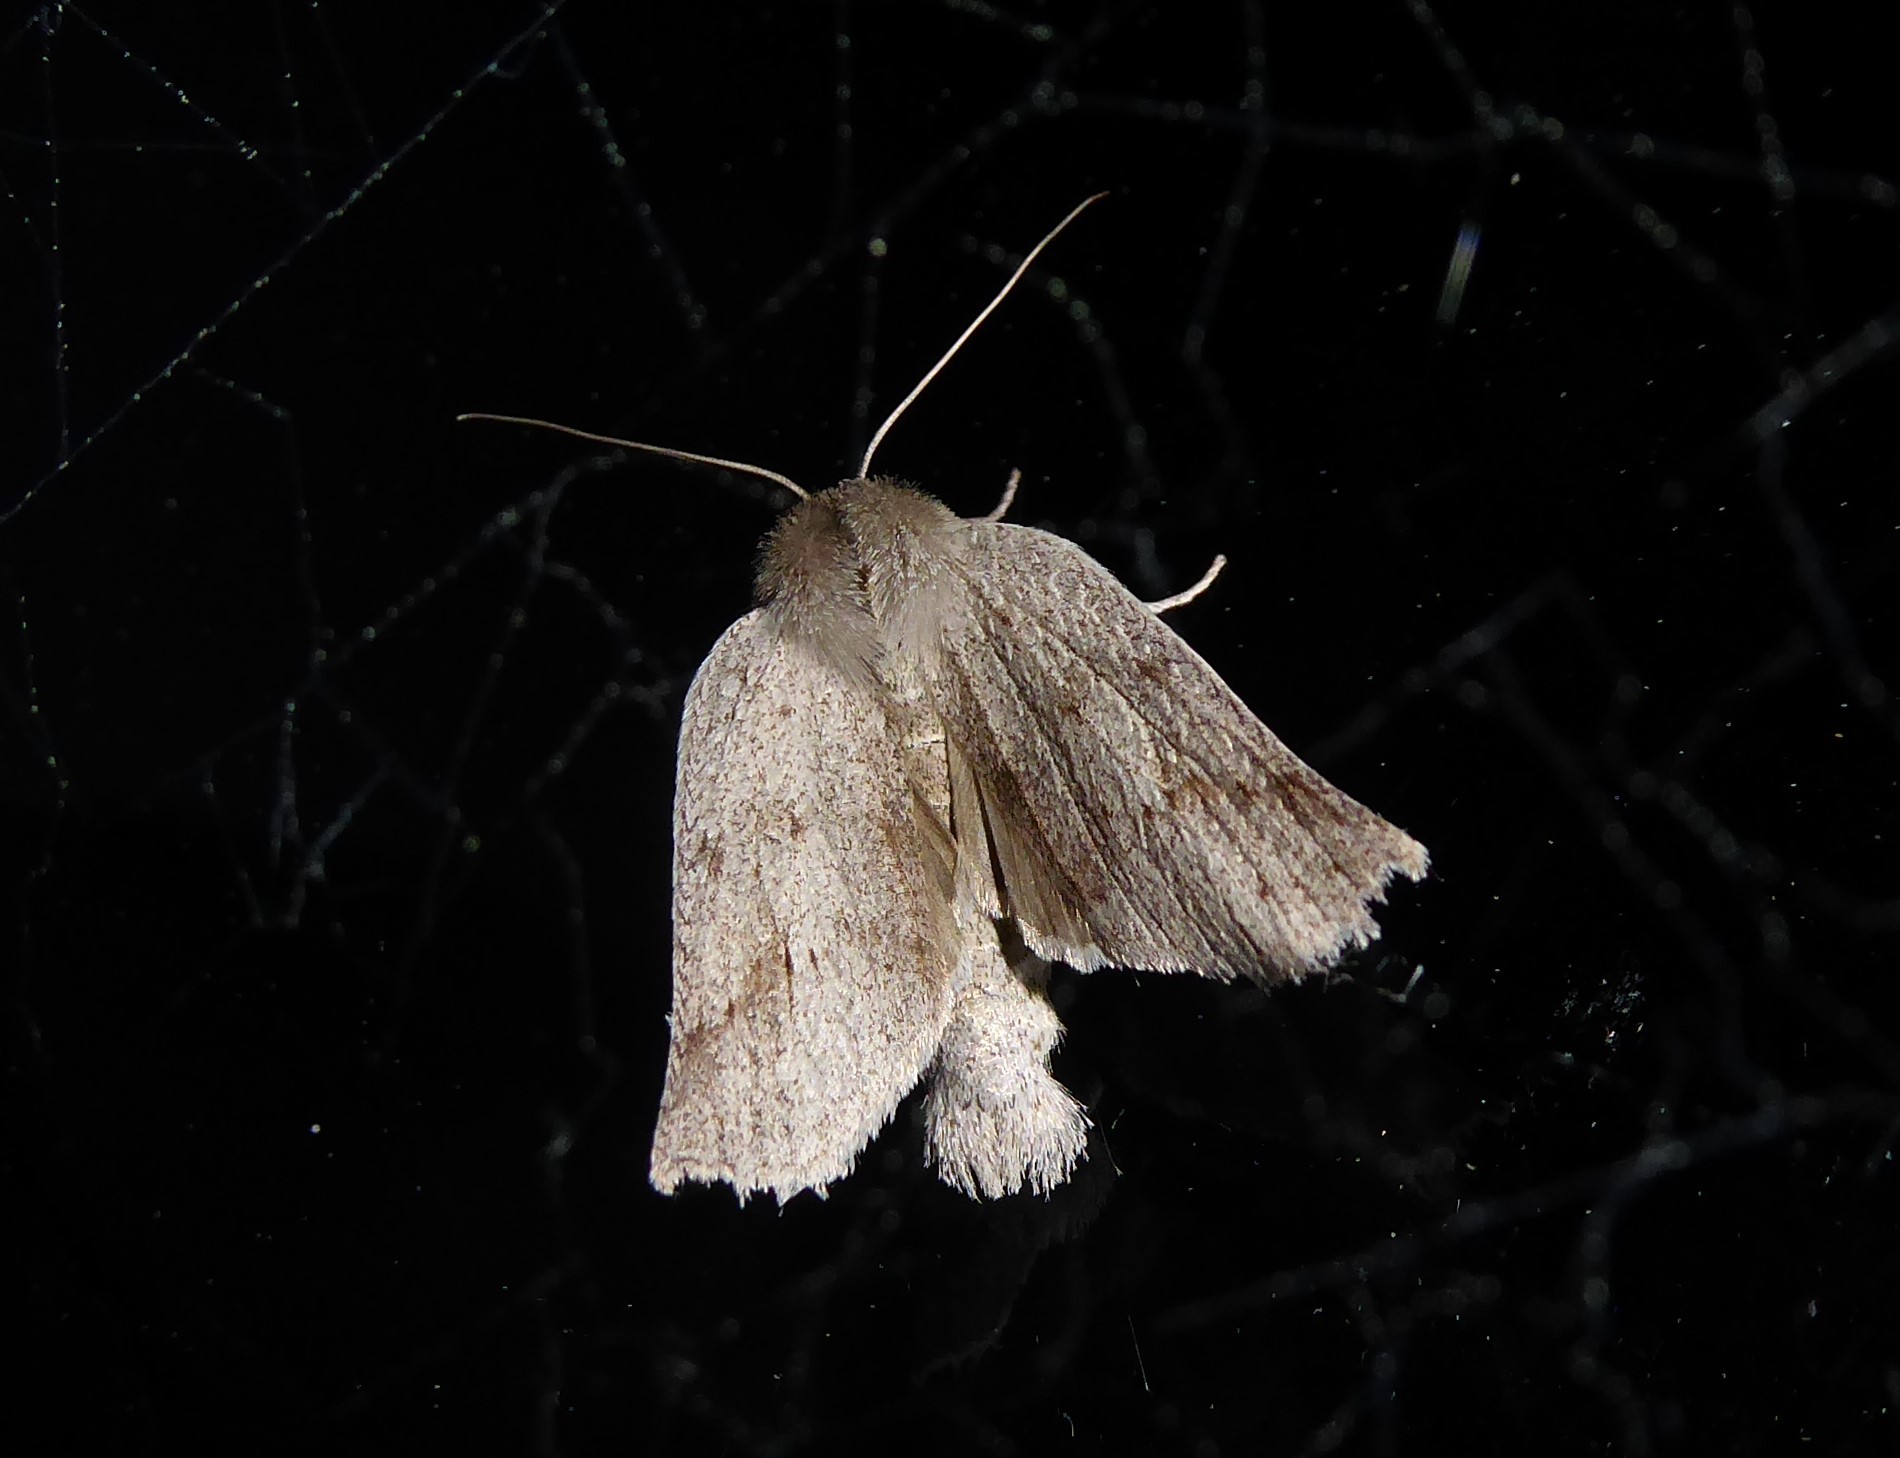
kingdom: Animalia
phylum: Arthropoda
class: Insecta
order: Lepidoptera
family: Geometridae
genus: Declana
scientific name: Declana leptomera
